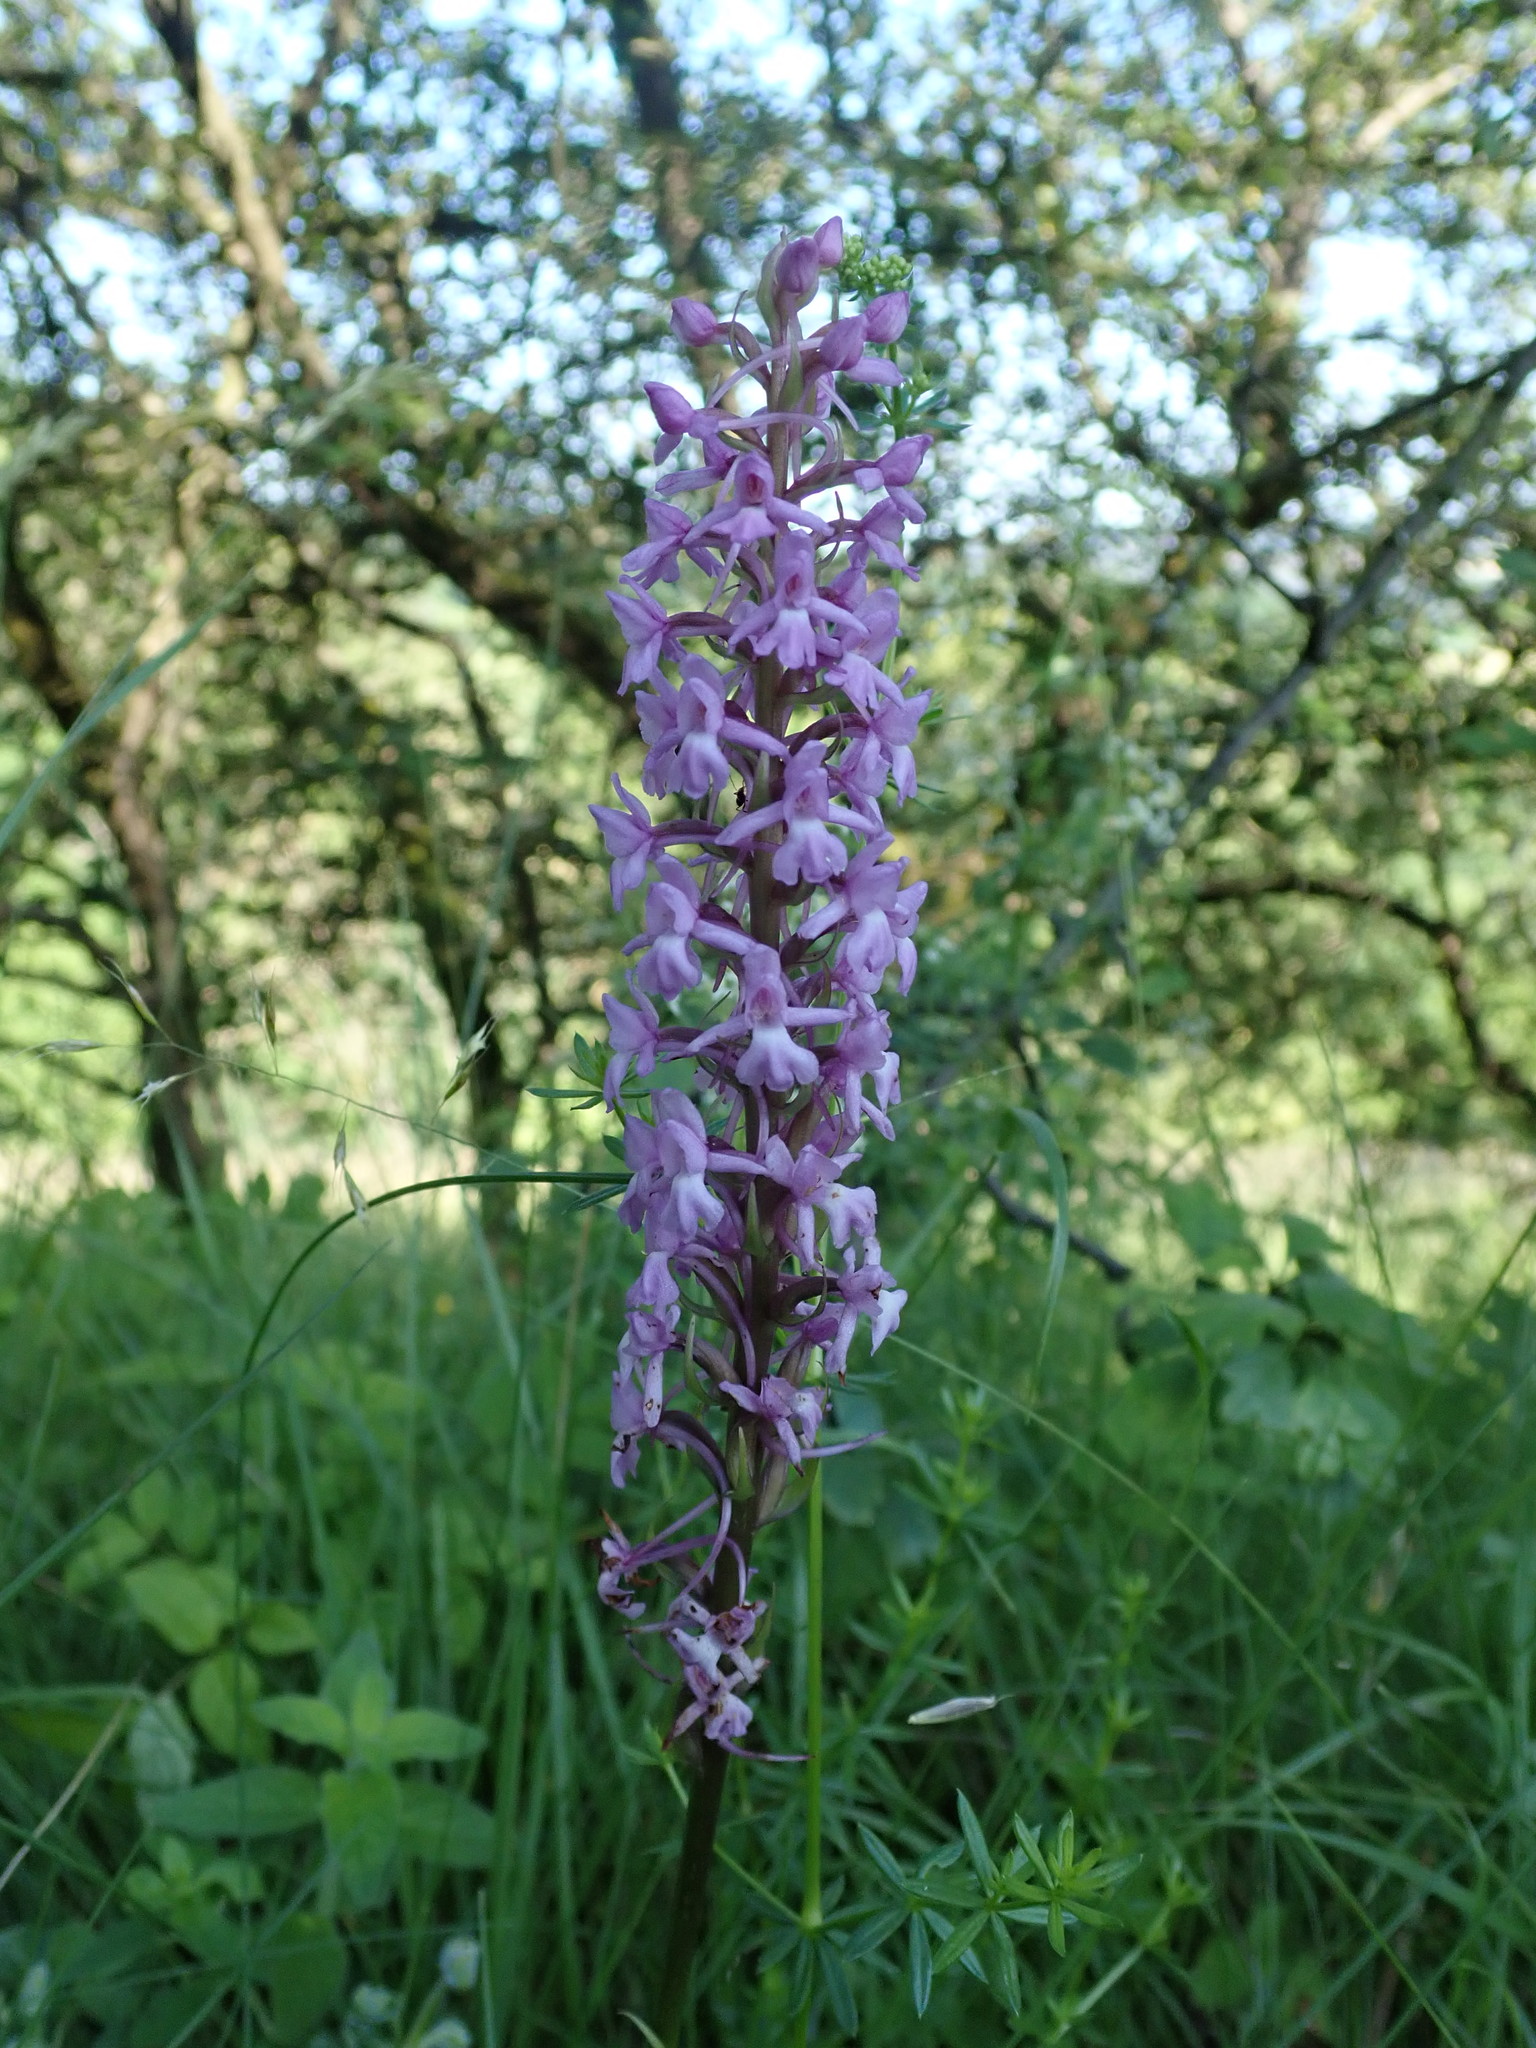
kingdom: Plantae
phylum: Tracheophyta
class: Liliopsida
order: Asparagales
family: Orchidaceae
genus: Gymnadenia
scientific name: Gymnadenia conopsea
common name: Fragrant orchid
